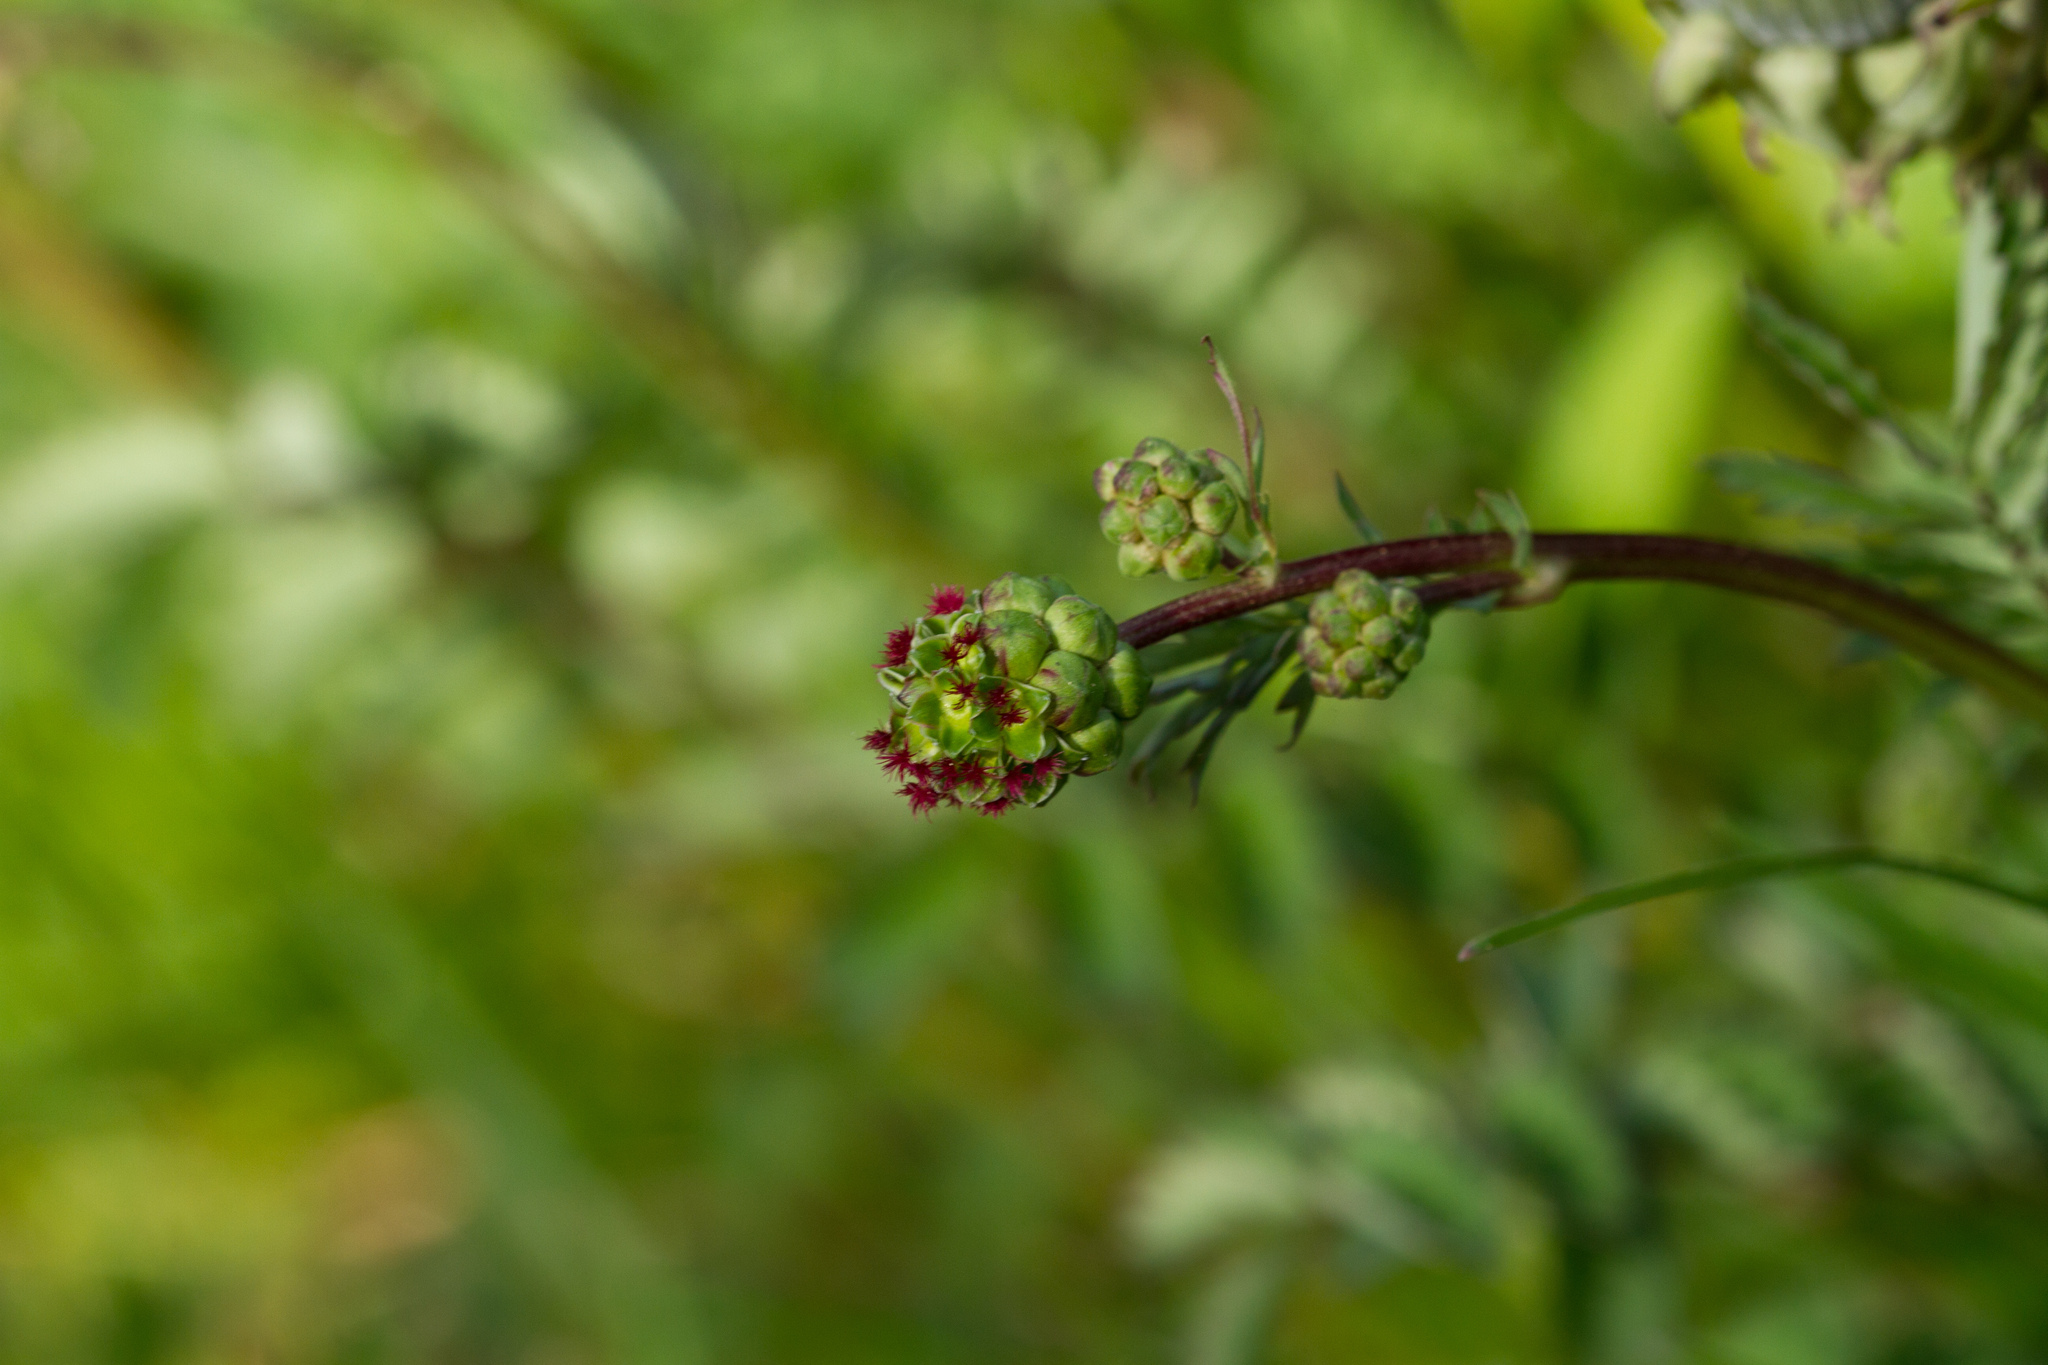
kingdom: Plantae
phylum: Tracheophyta
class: Magnoliopsida
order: Rosales
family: Rosaceae
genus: Poterium
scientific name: Poterium sanguisorba
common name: Salad burnet
